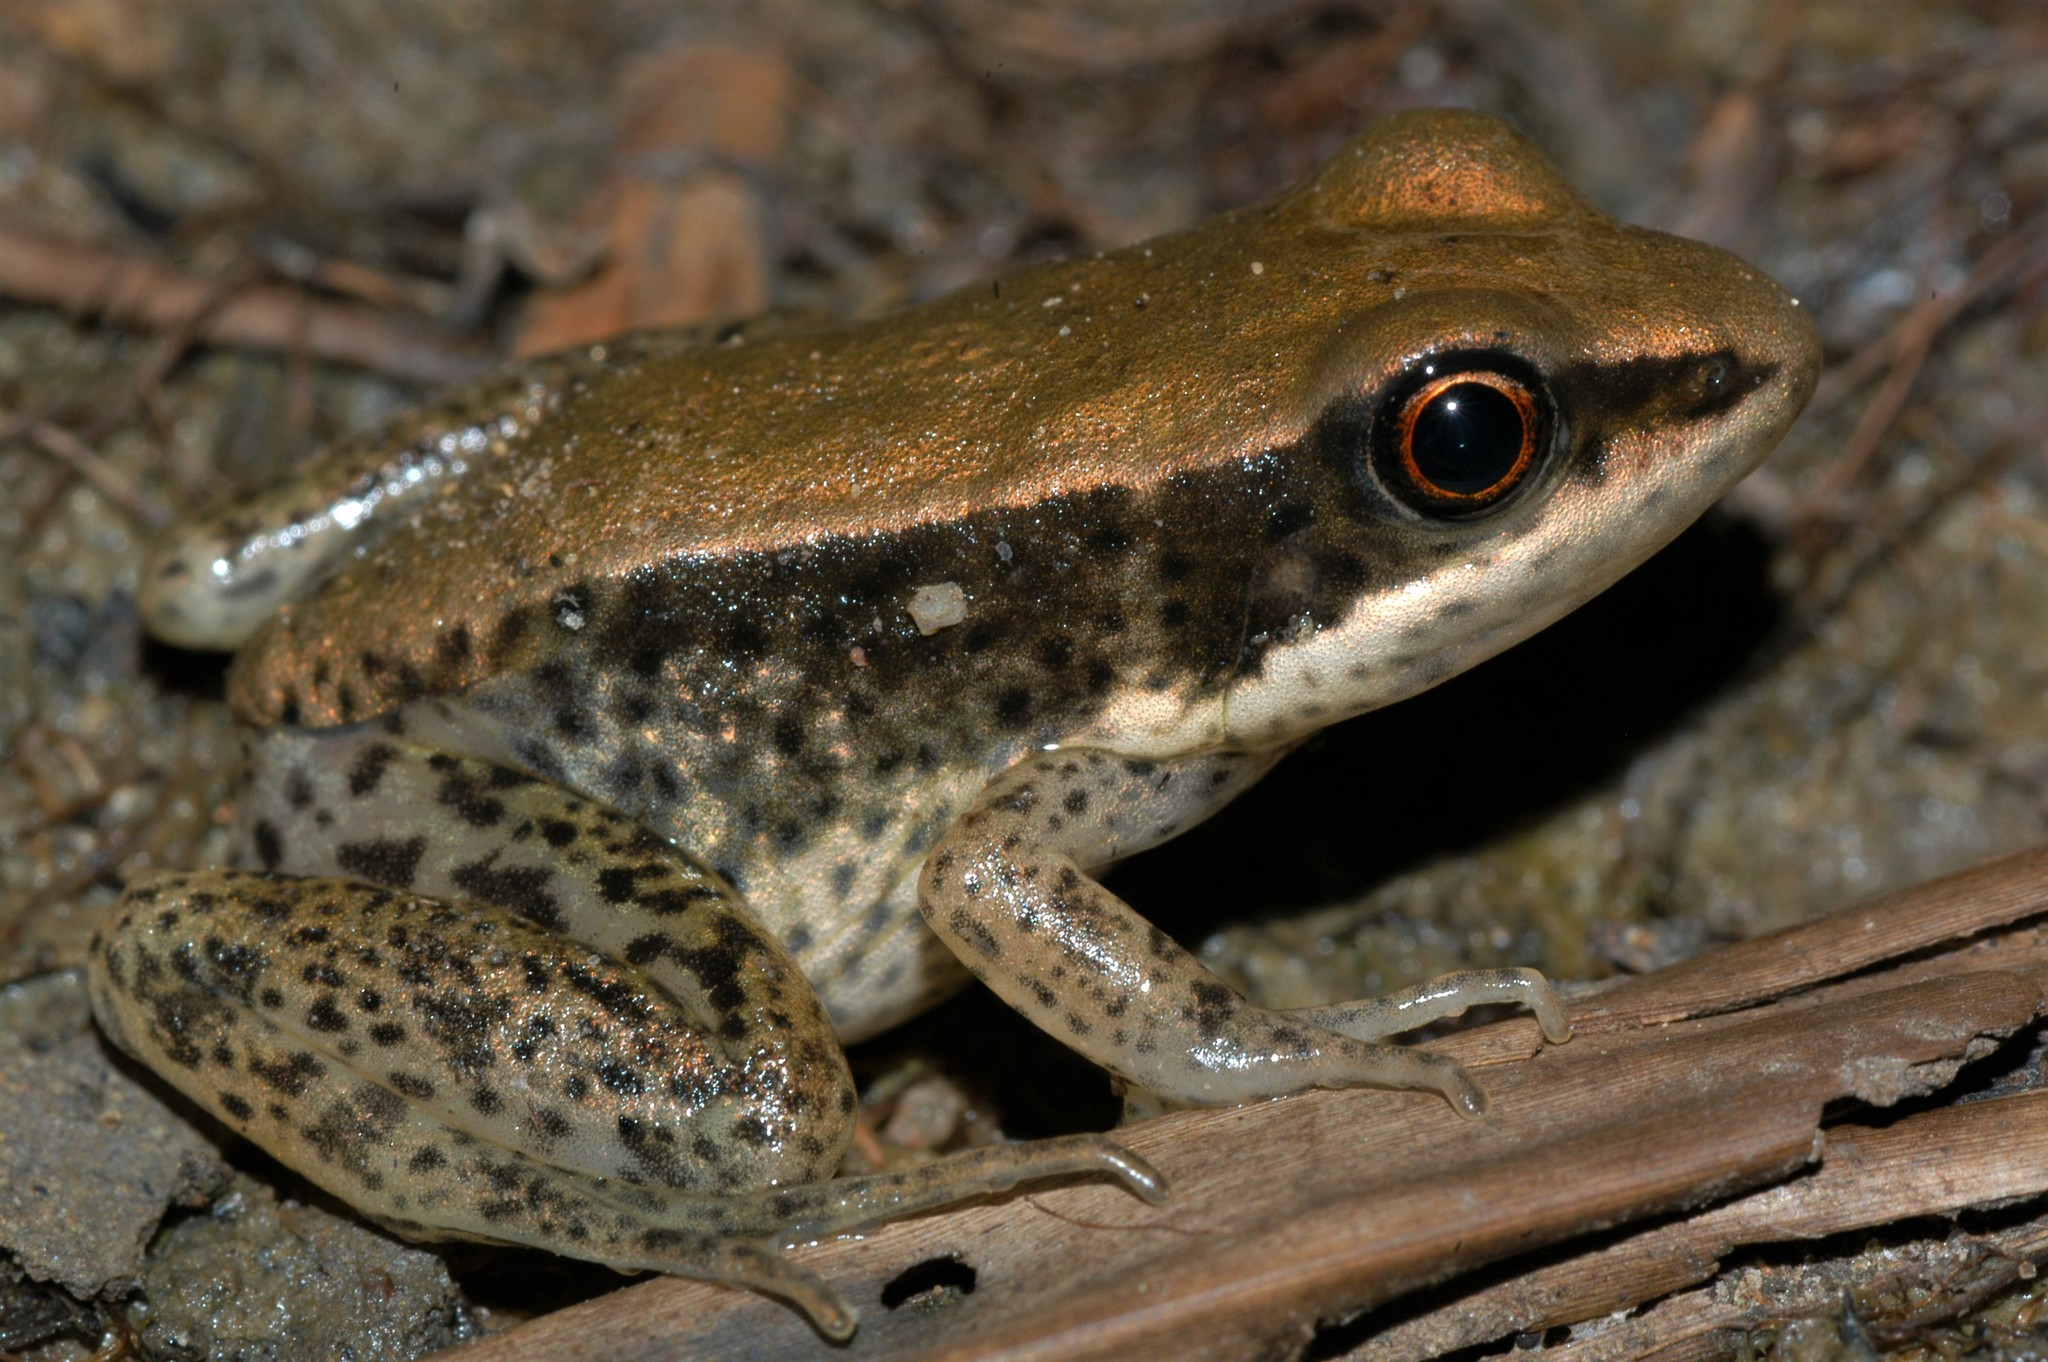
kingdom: Animalia
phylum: Chordata
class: Amphibia
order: Anura
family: Ranidae
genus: Amnirana
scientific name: Amnirana darlingi
